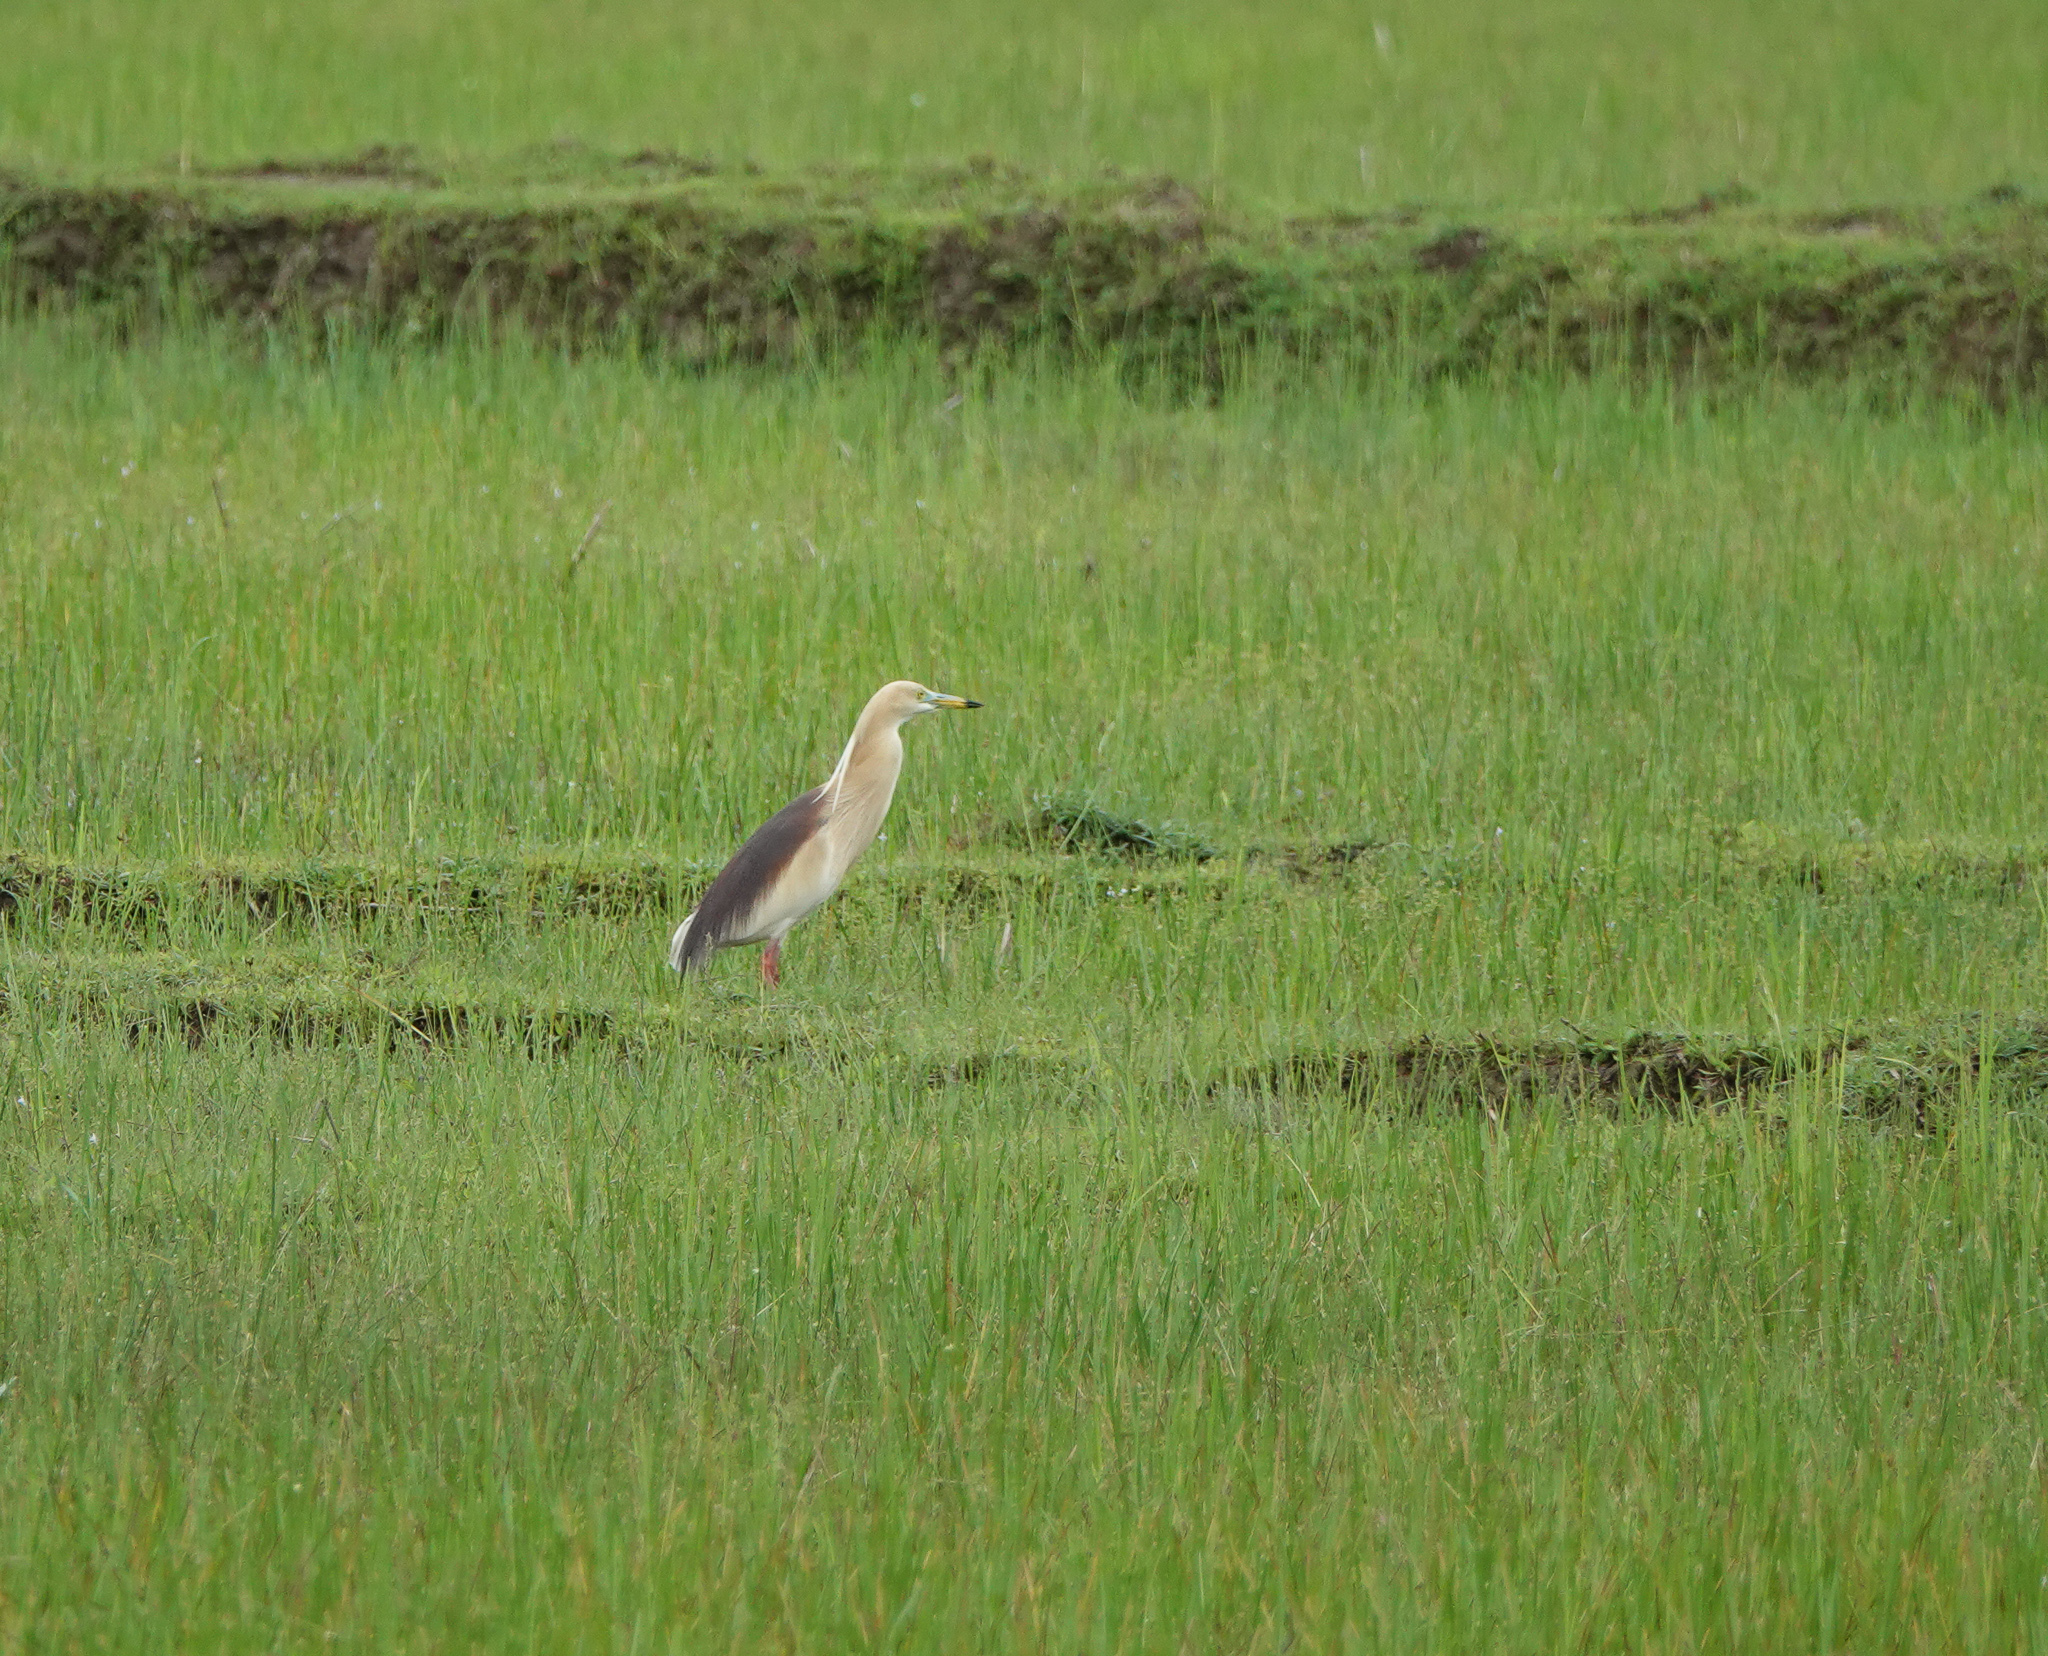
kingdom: Animalia
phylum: Chordata
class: Aves
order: Pelecaniformes
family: Ardeidae
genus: Ardeola
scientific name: Ardeola grayii
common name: Indian pond heron
